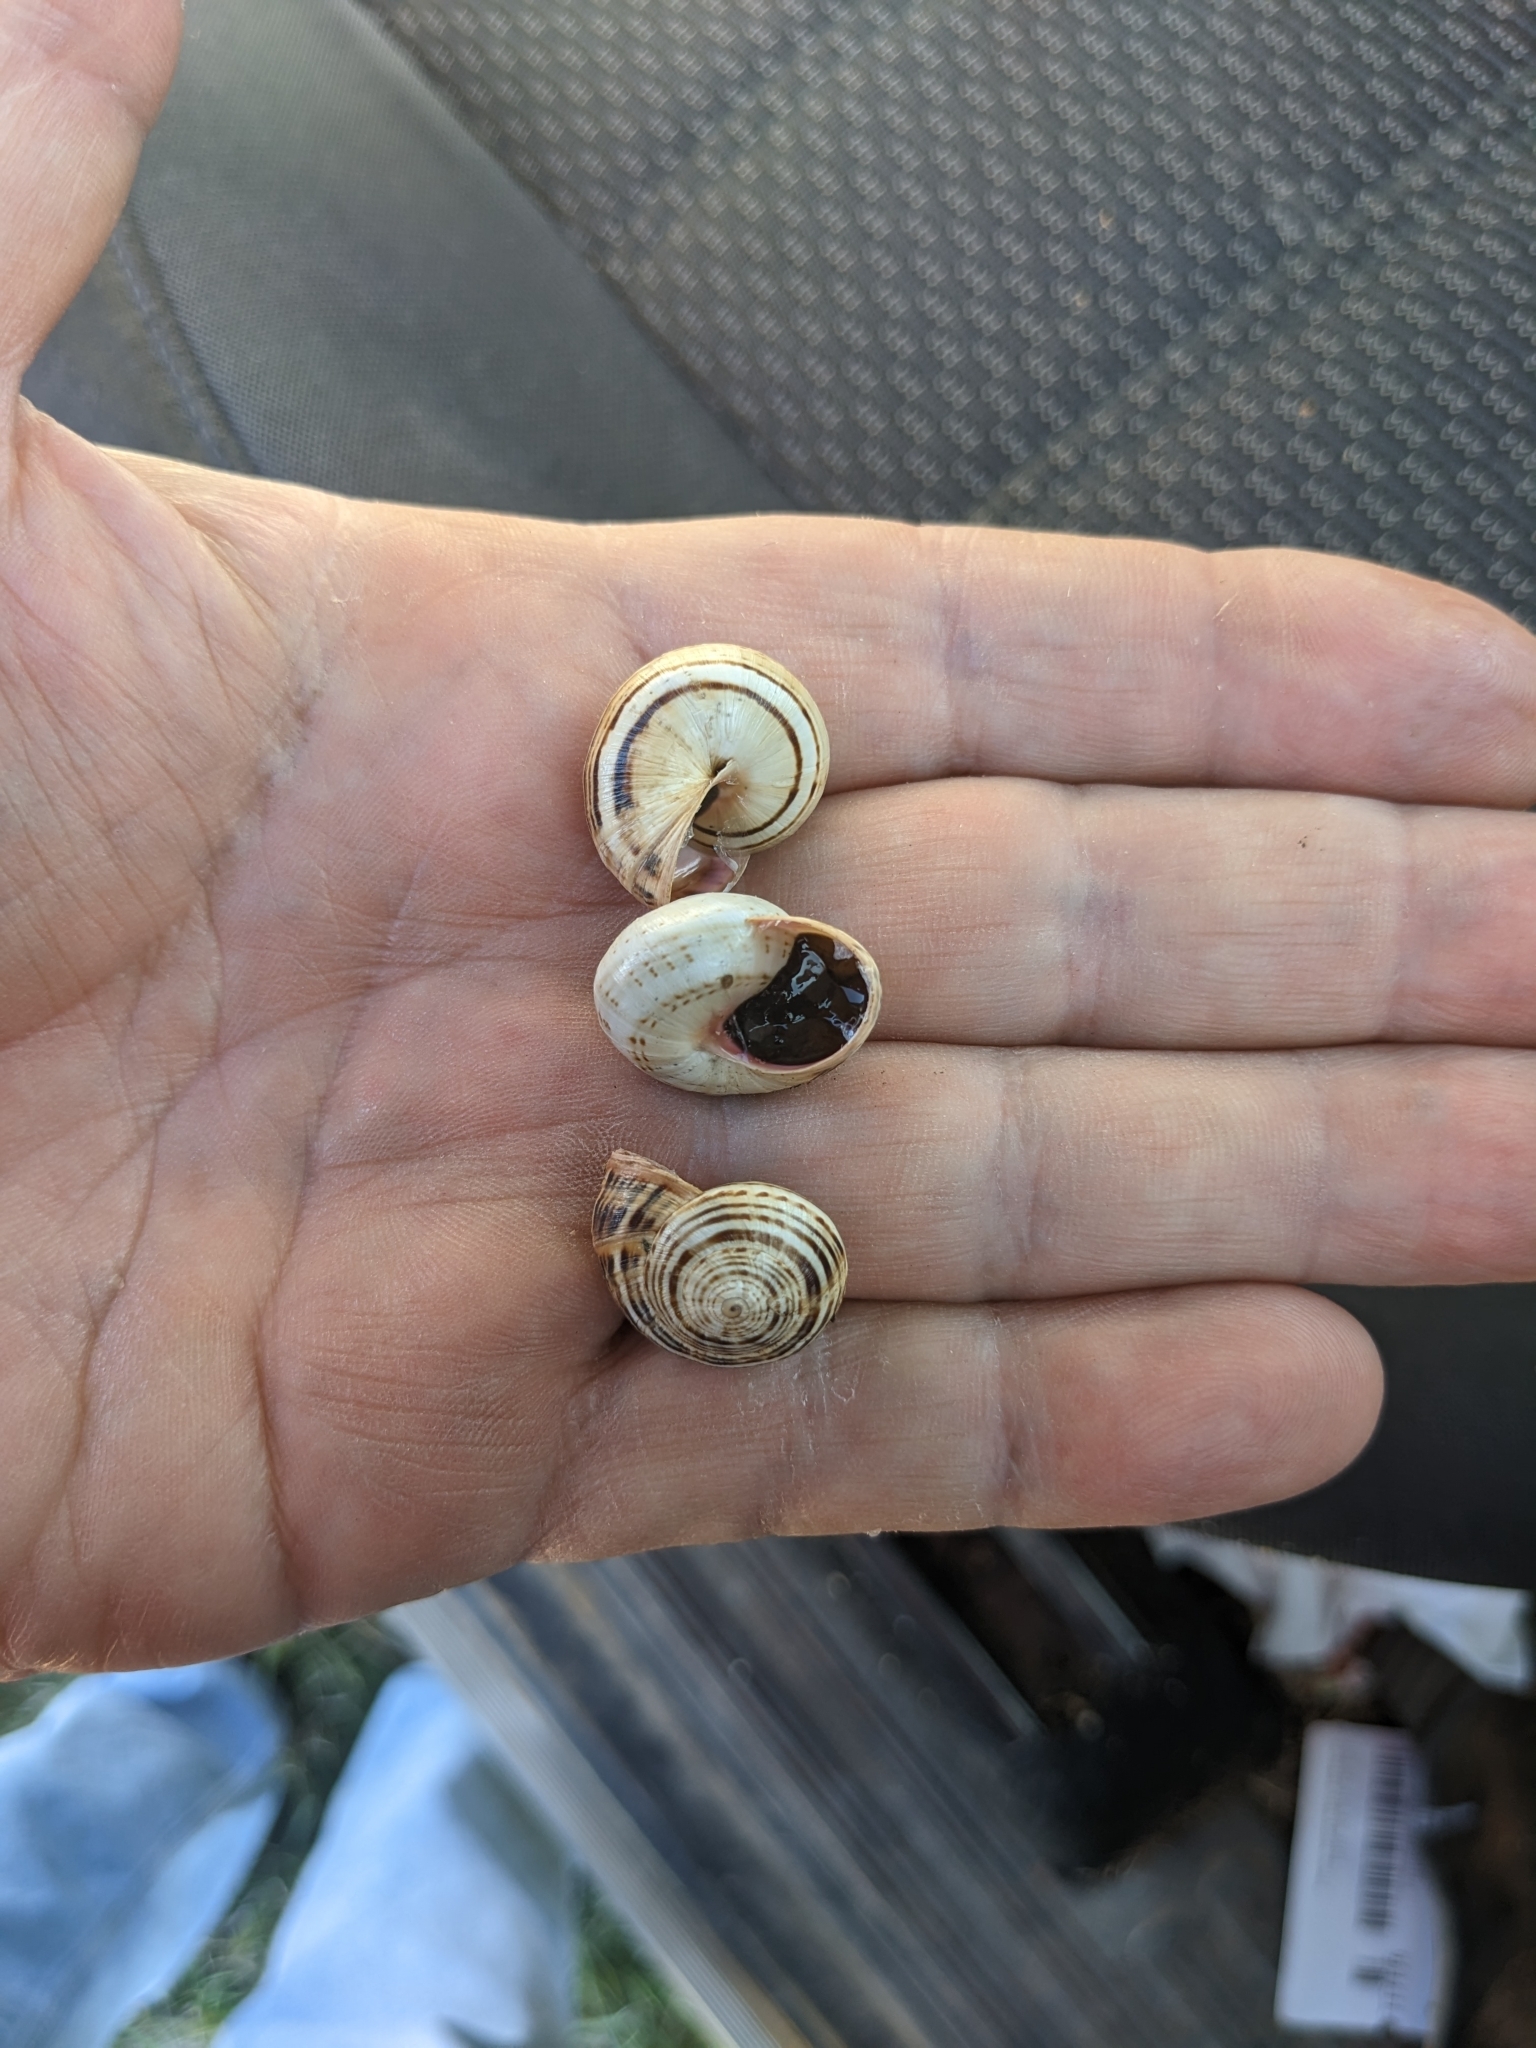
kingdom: Animalia
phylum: Mollusca
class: Gastropoda
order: Stylommatophora
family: Helicidae
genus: Theba
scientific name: Theba pisana
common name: White snail
